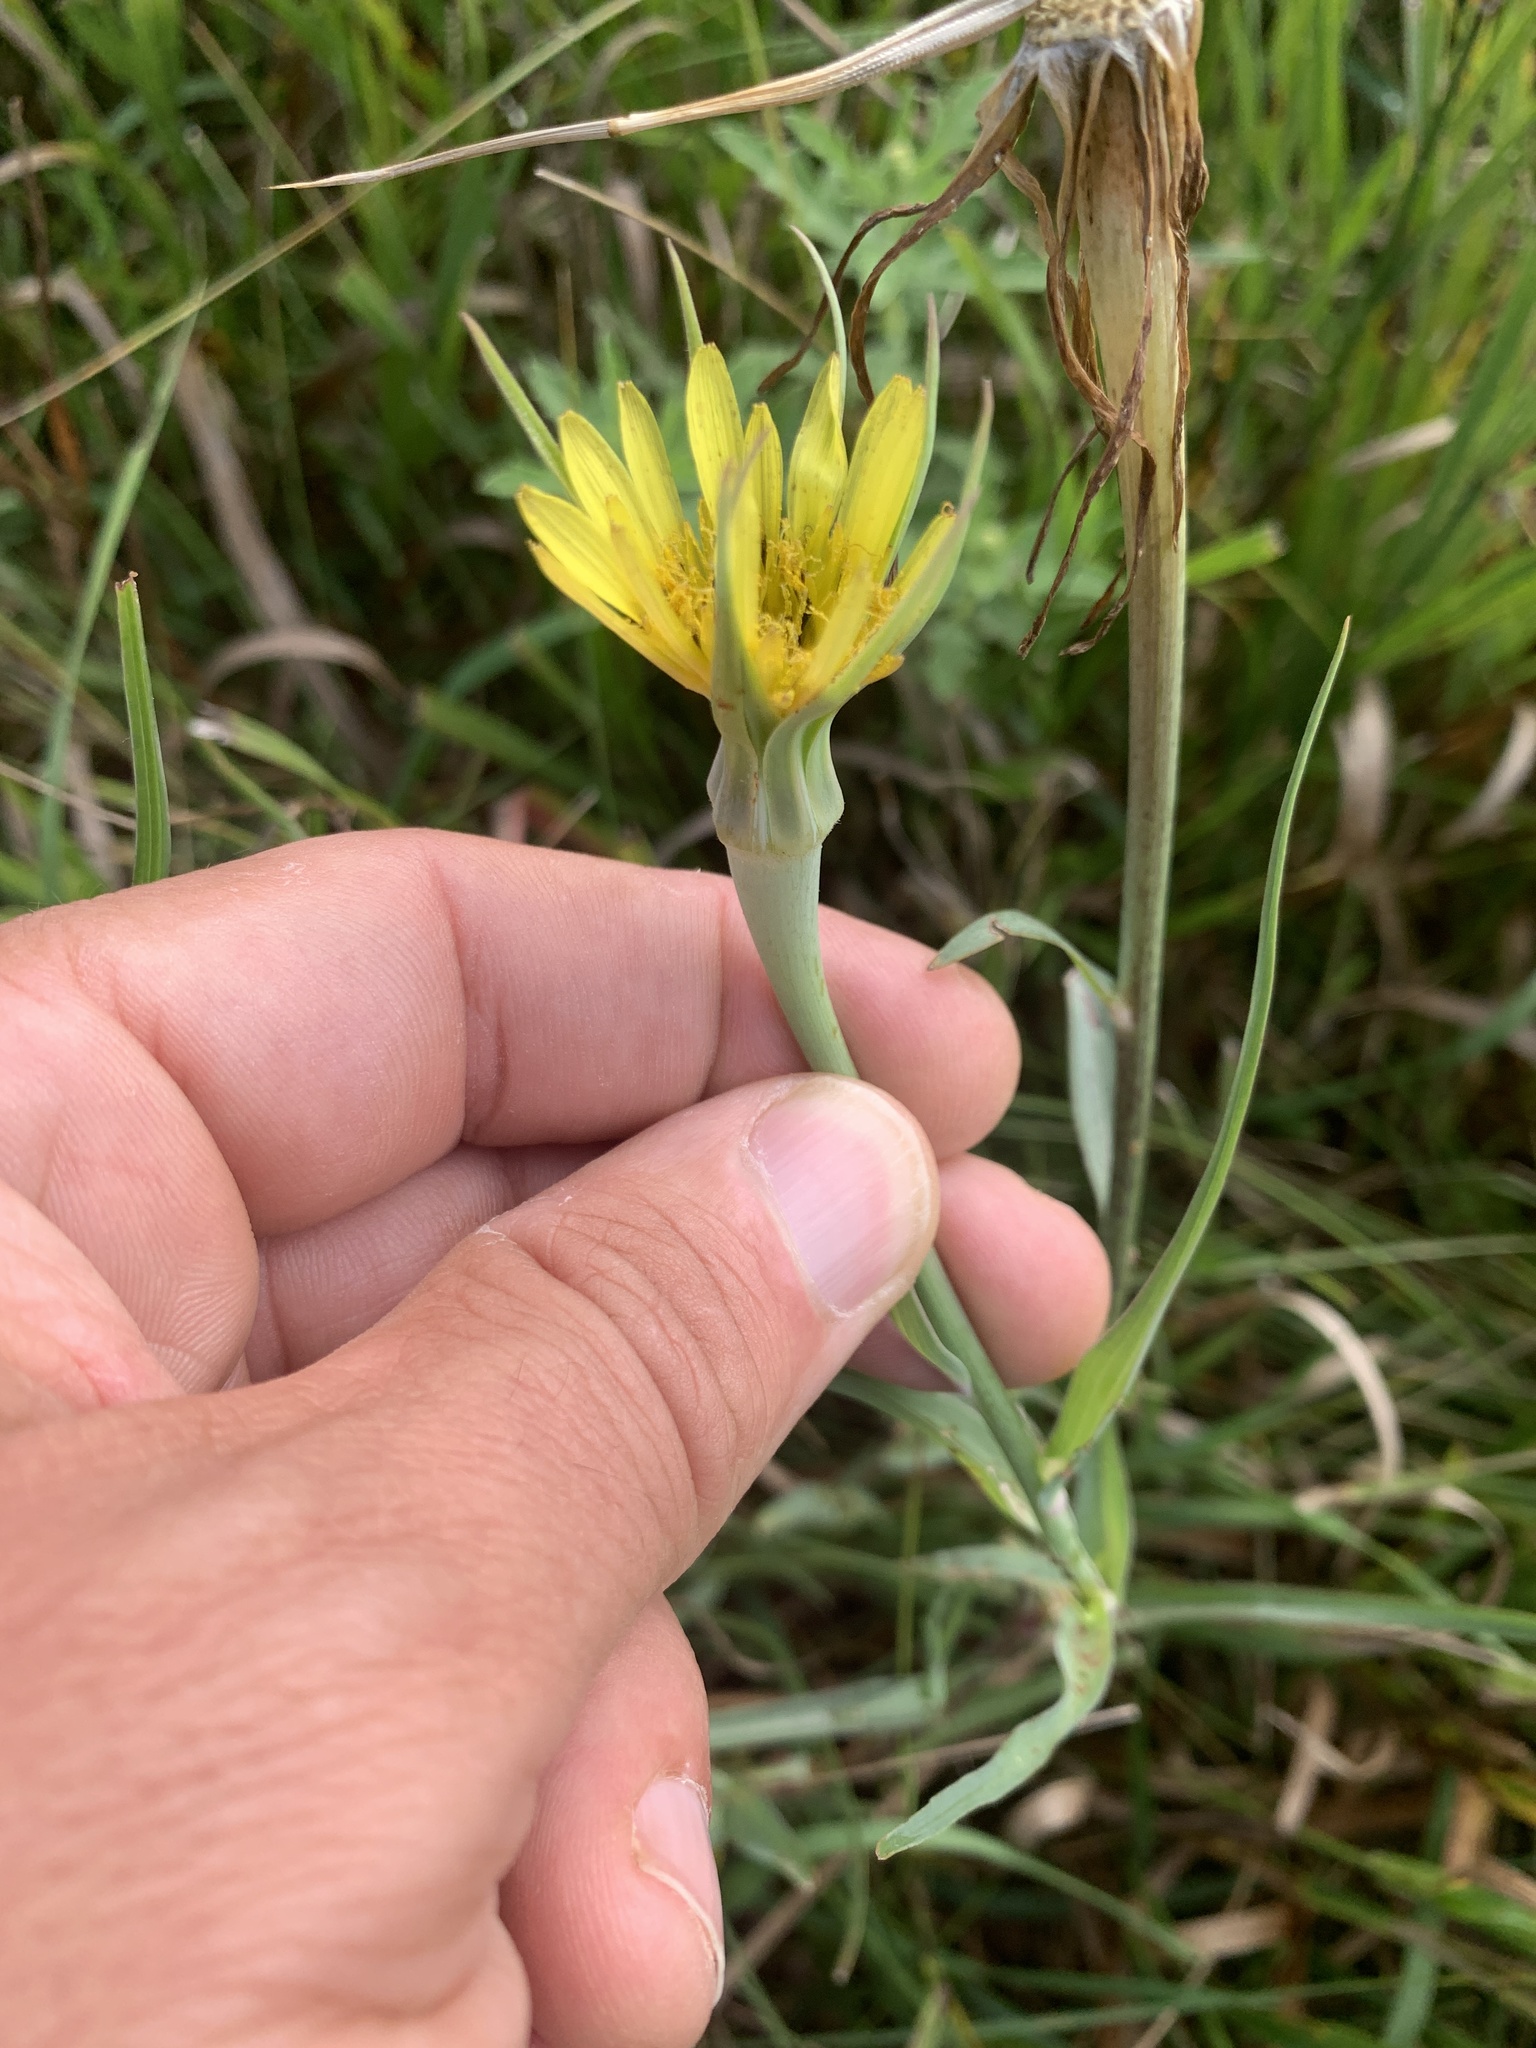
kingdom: Plantae
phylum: Tracheophyta
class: Magnoliopsida
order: Asterales
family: Asteraceae
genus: Tragopogon
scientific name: Tragopogon dubius
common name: Yellow salsify
